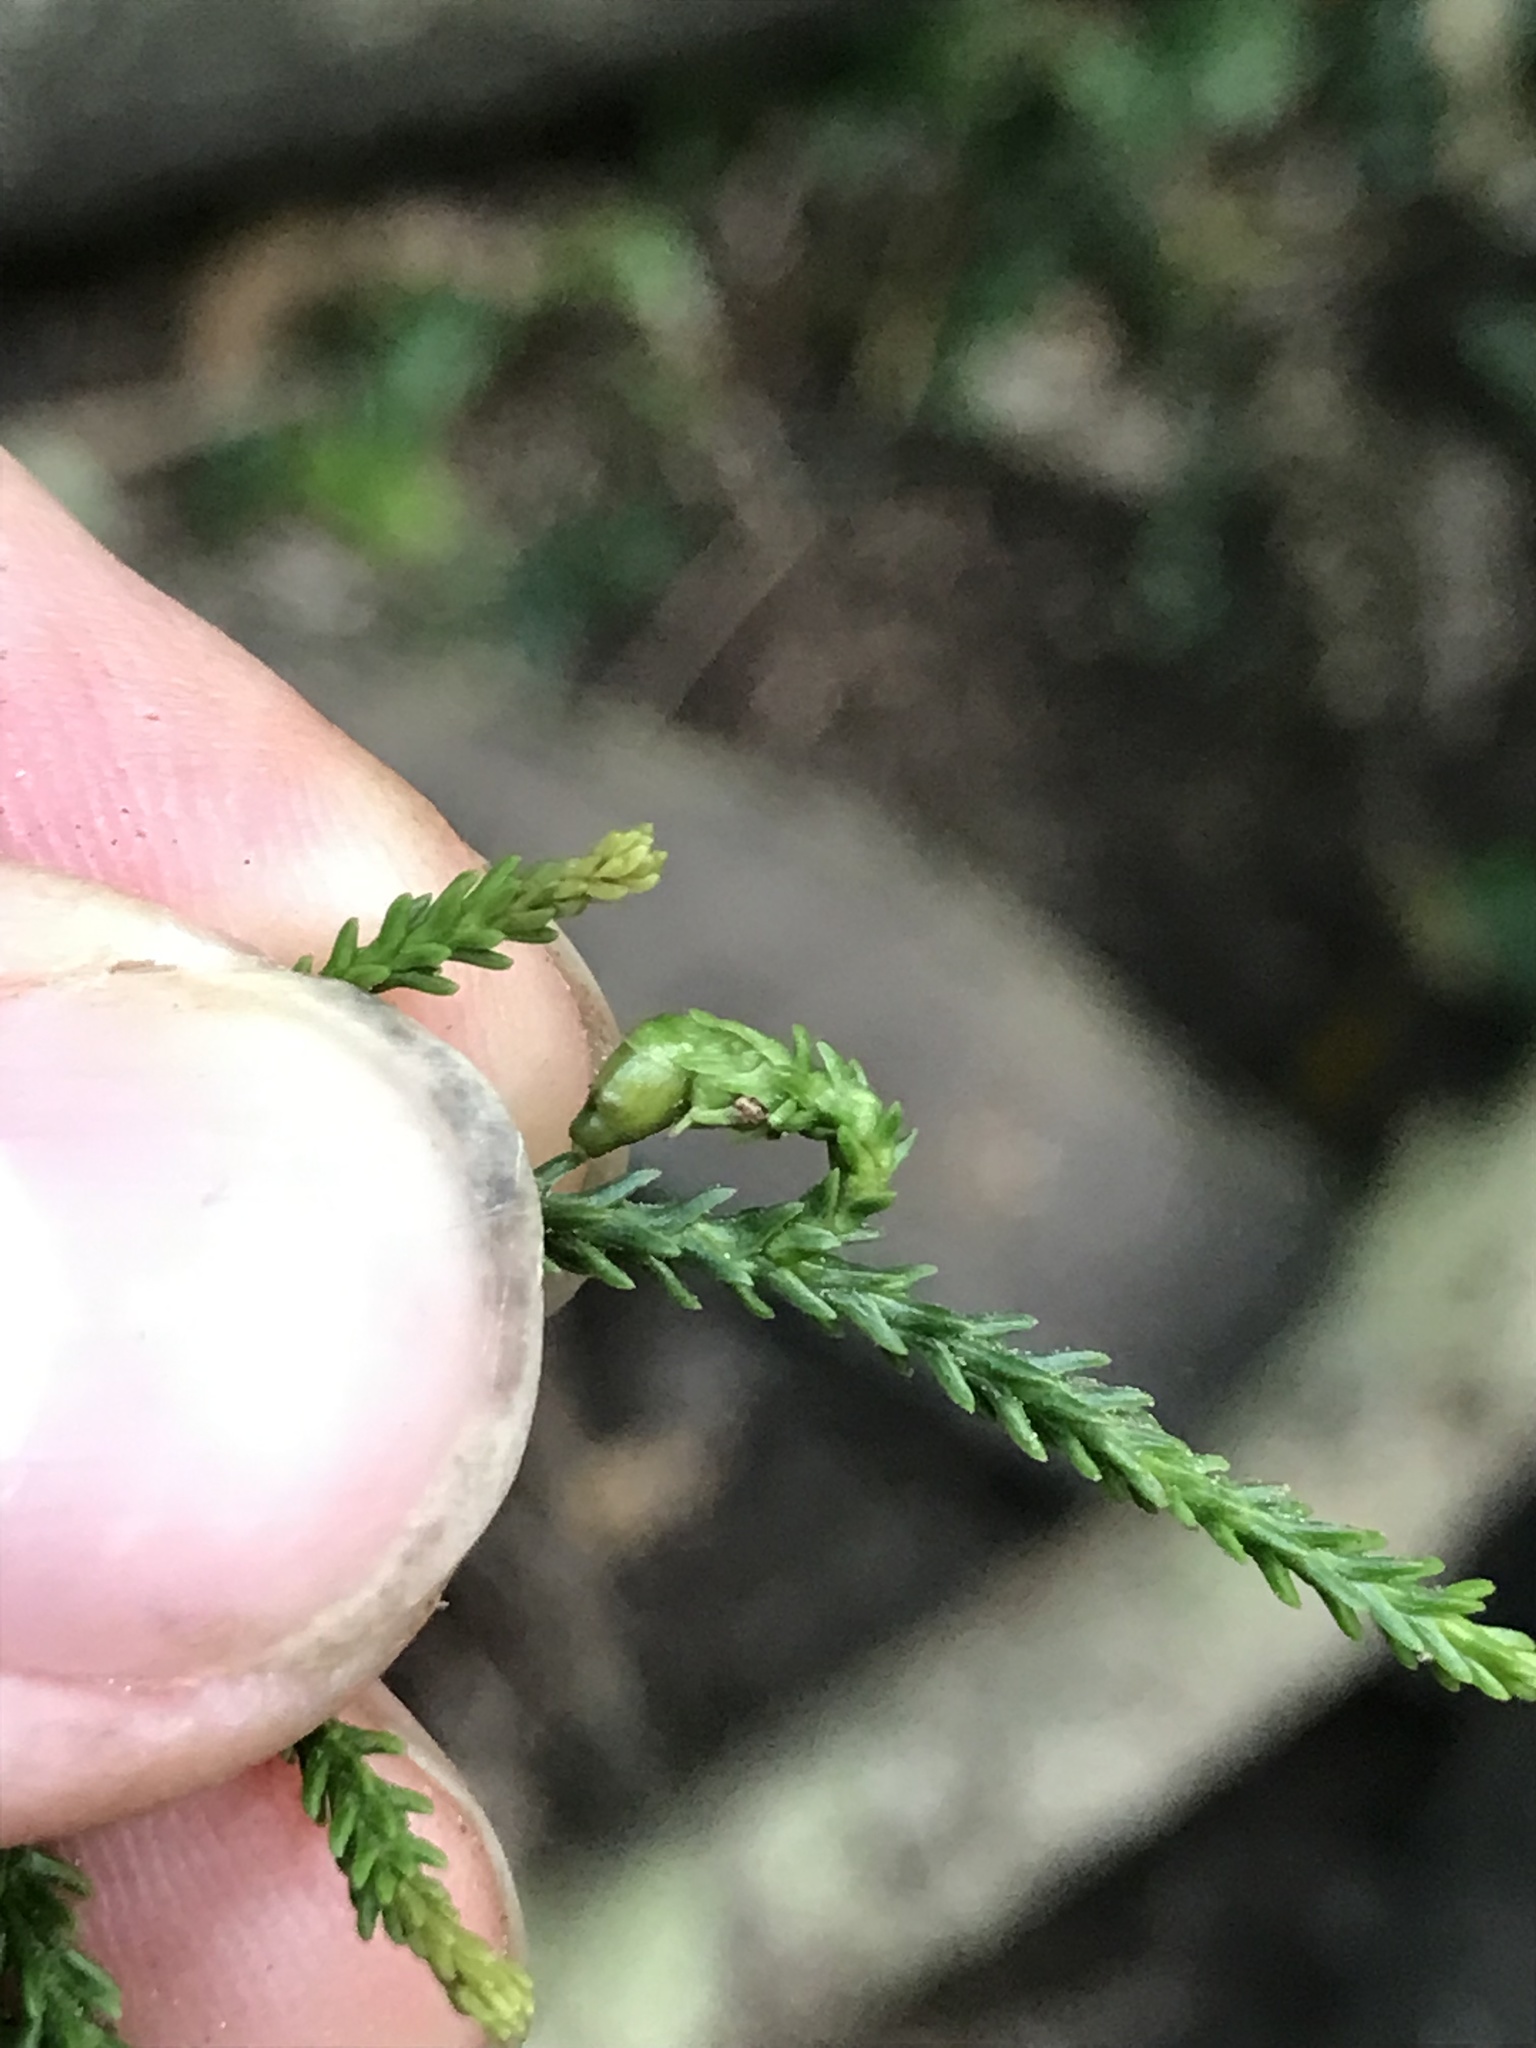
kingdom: Plantae
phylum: Tracheophyta
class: Pinopsida
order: Pinales
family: Podocarpaceae
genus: Dacrydium
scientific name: Dacrydium cupressinum
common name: Red pine
